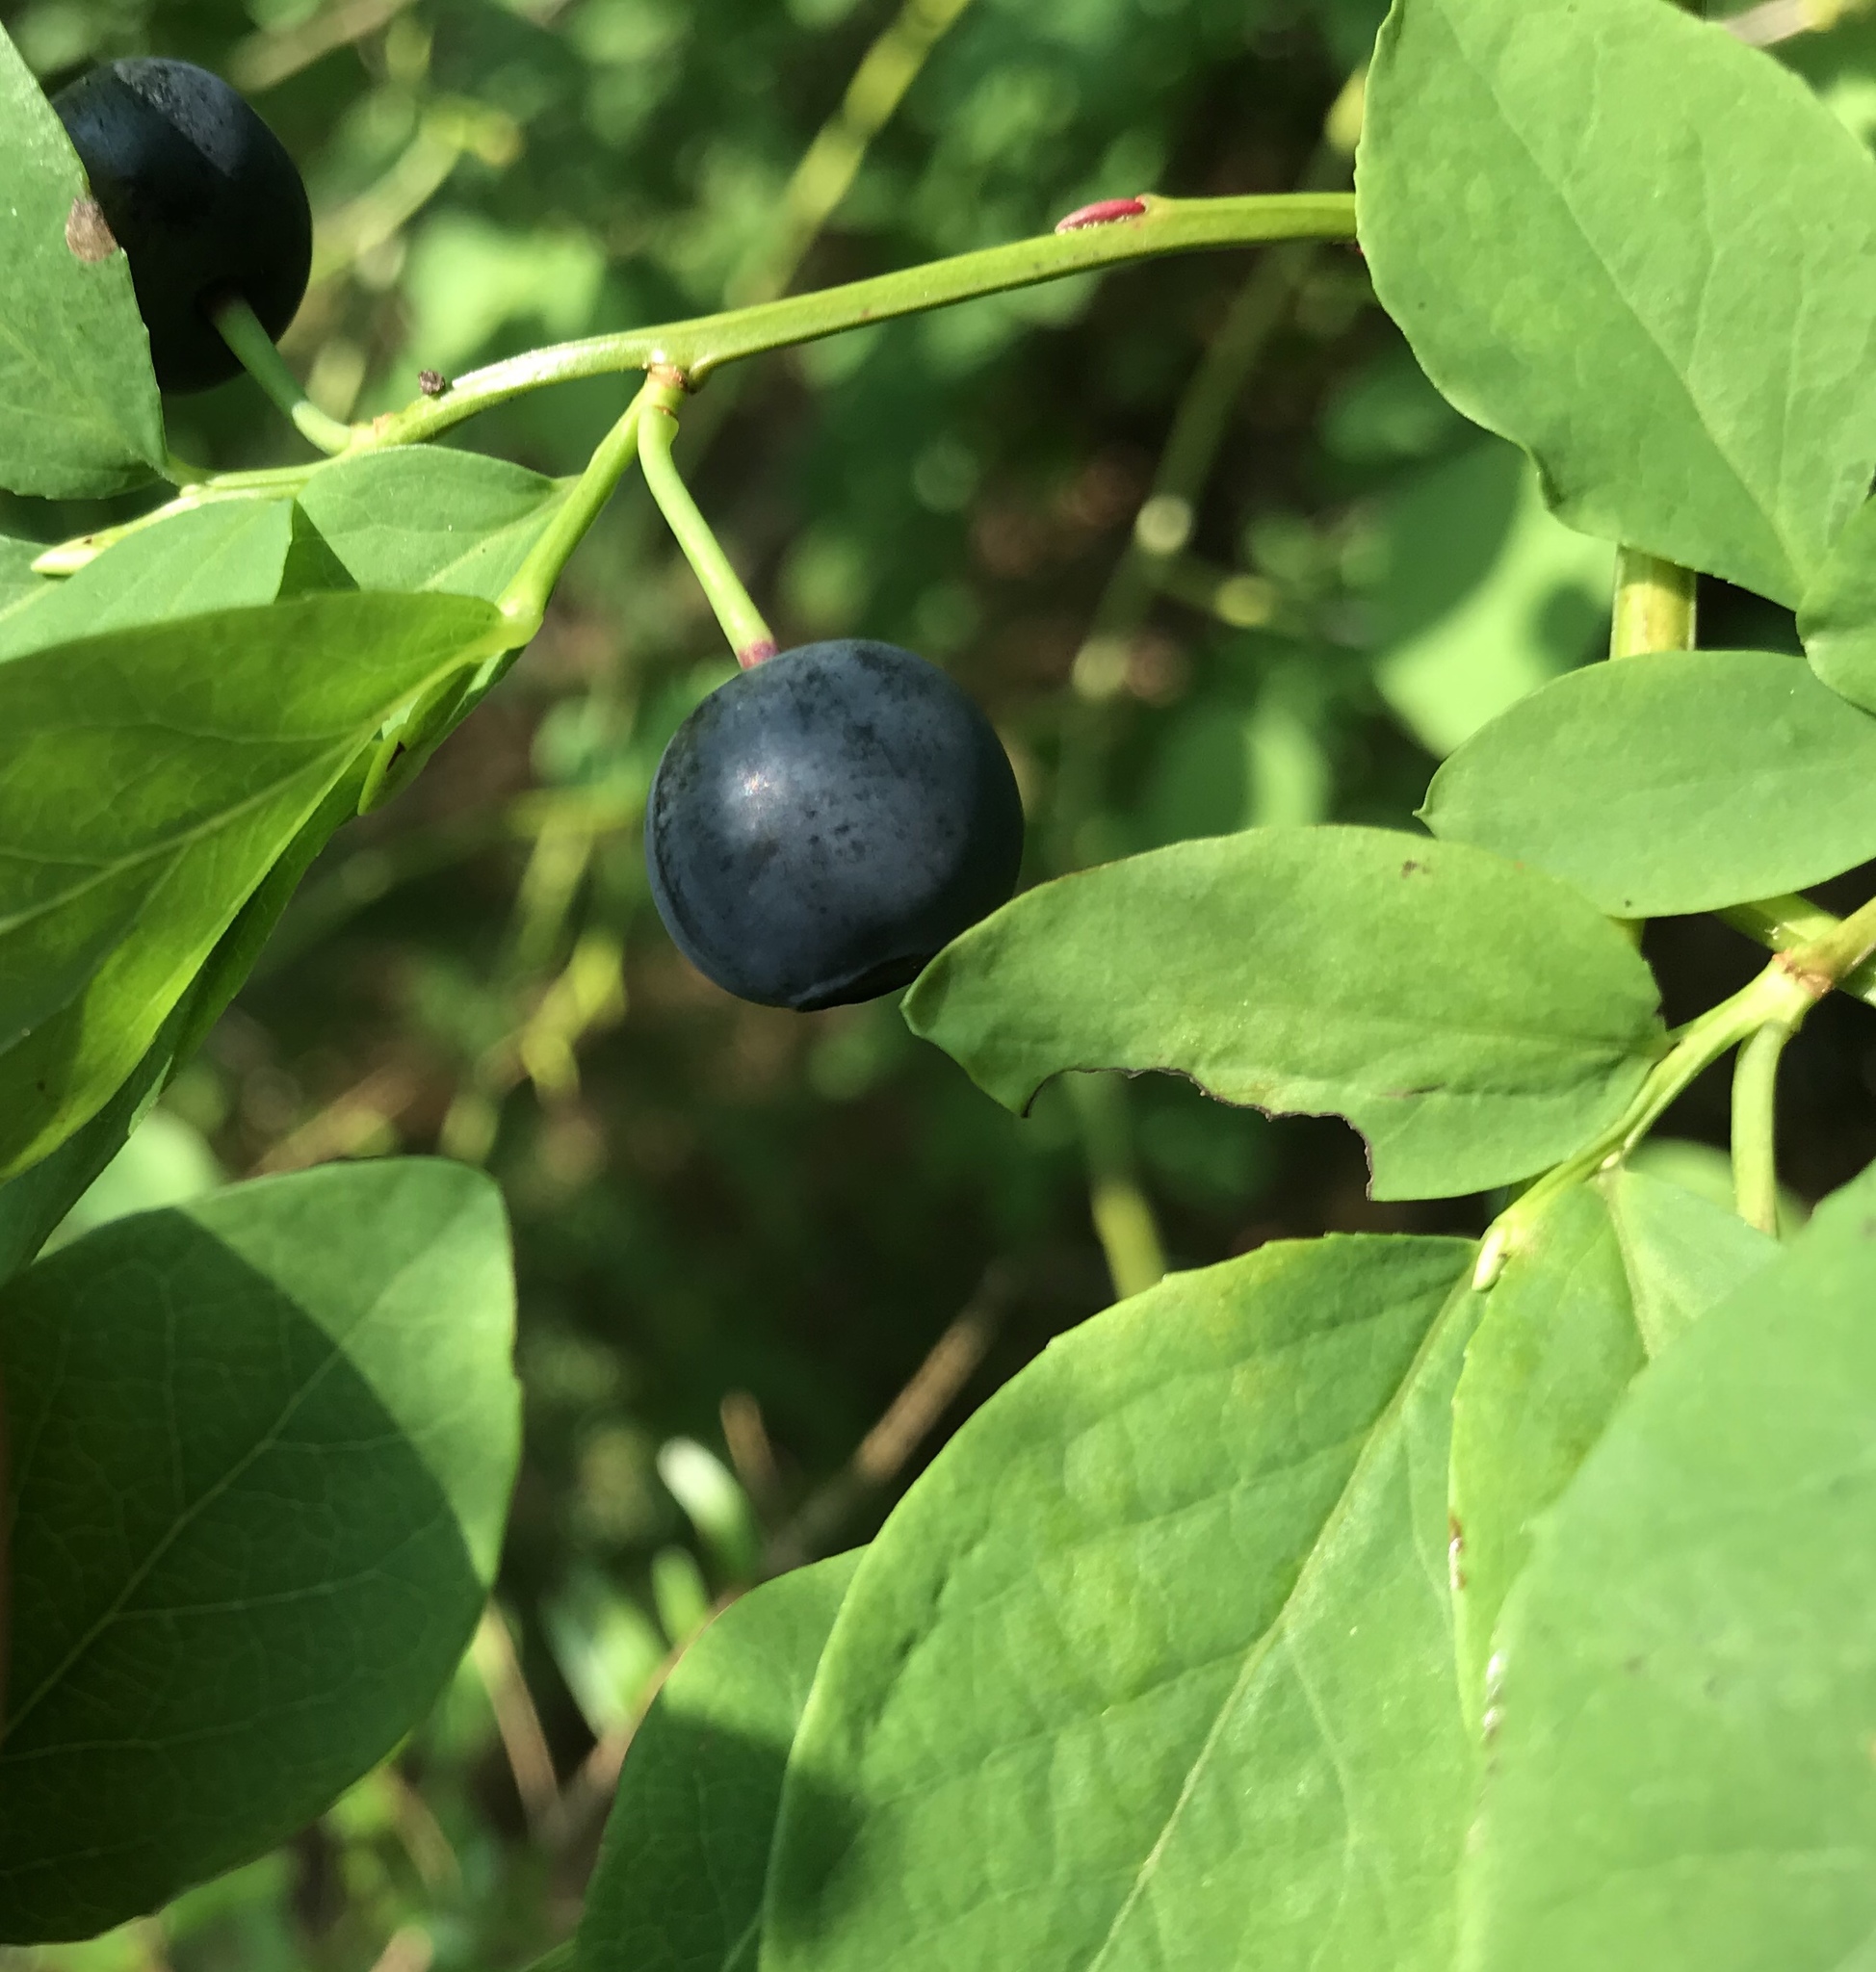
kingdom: Plantae
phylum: Tracheophyta
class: Magnoliopsida
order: Ericales
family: Ericaceae
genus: Vaccinium
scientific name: Vaccinium ovalifolium
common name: Early blueberry
